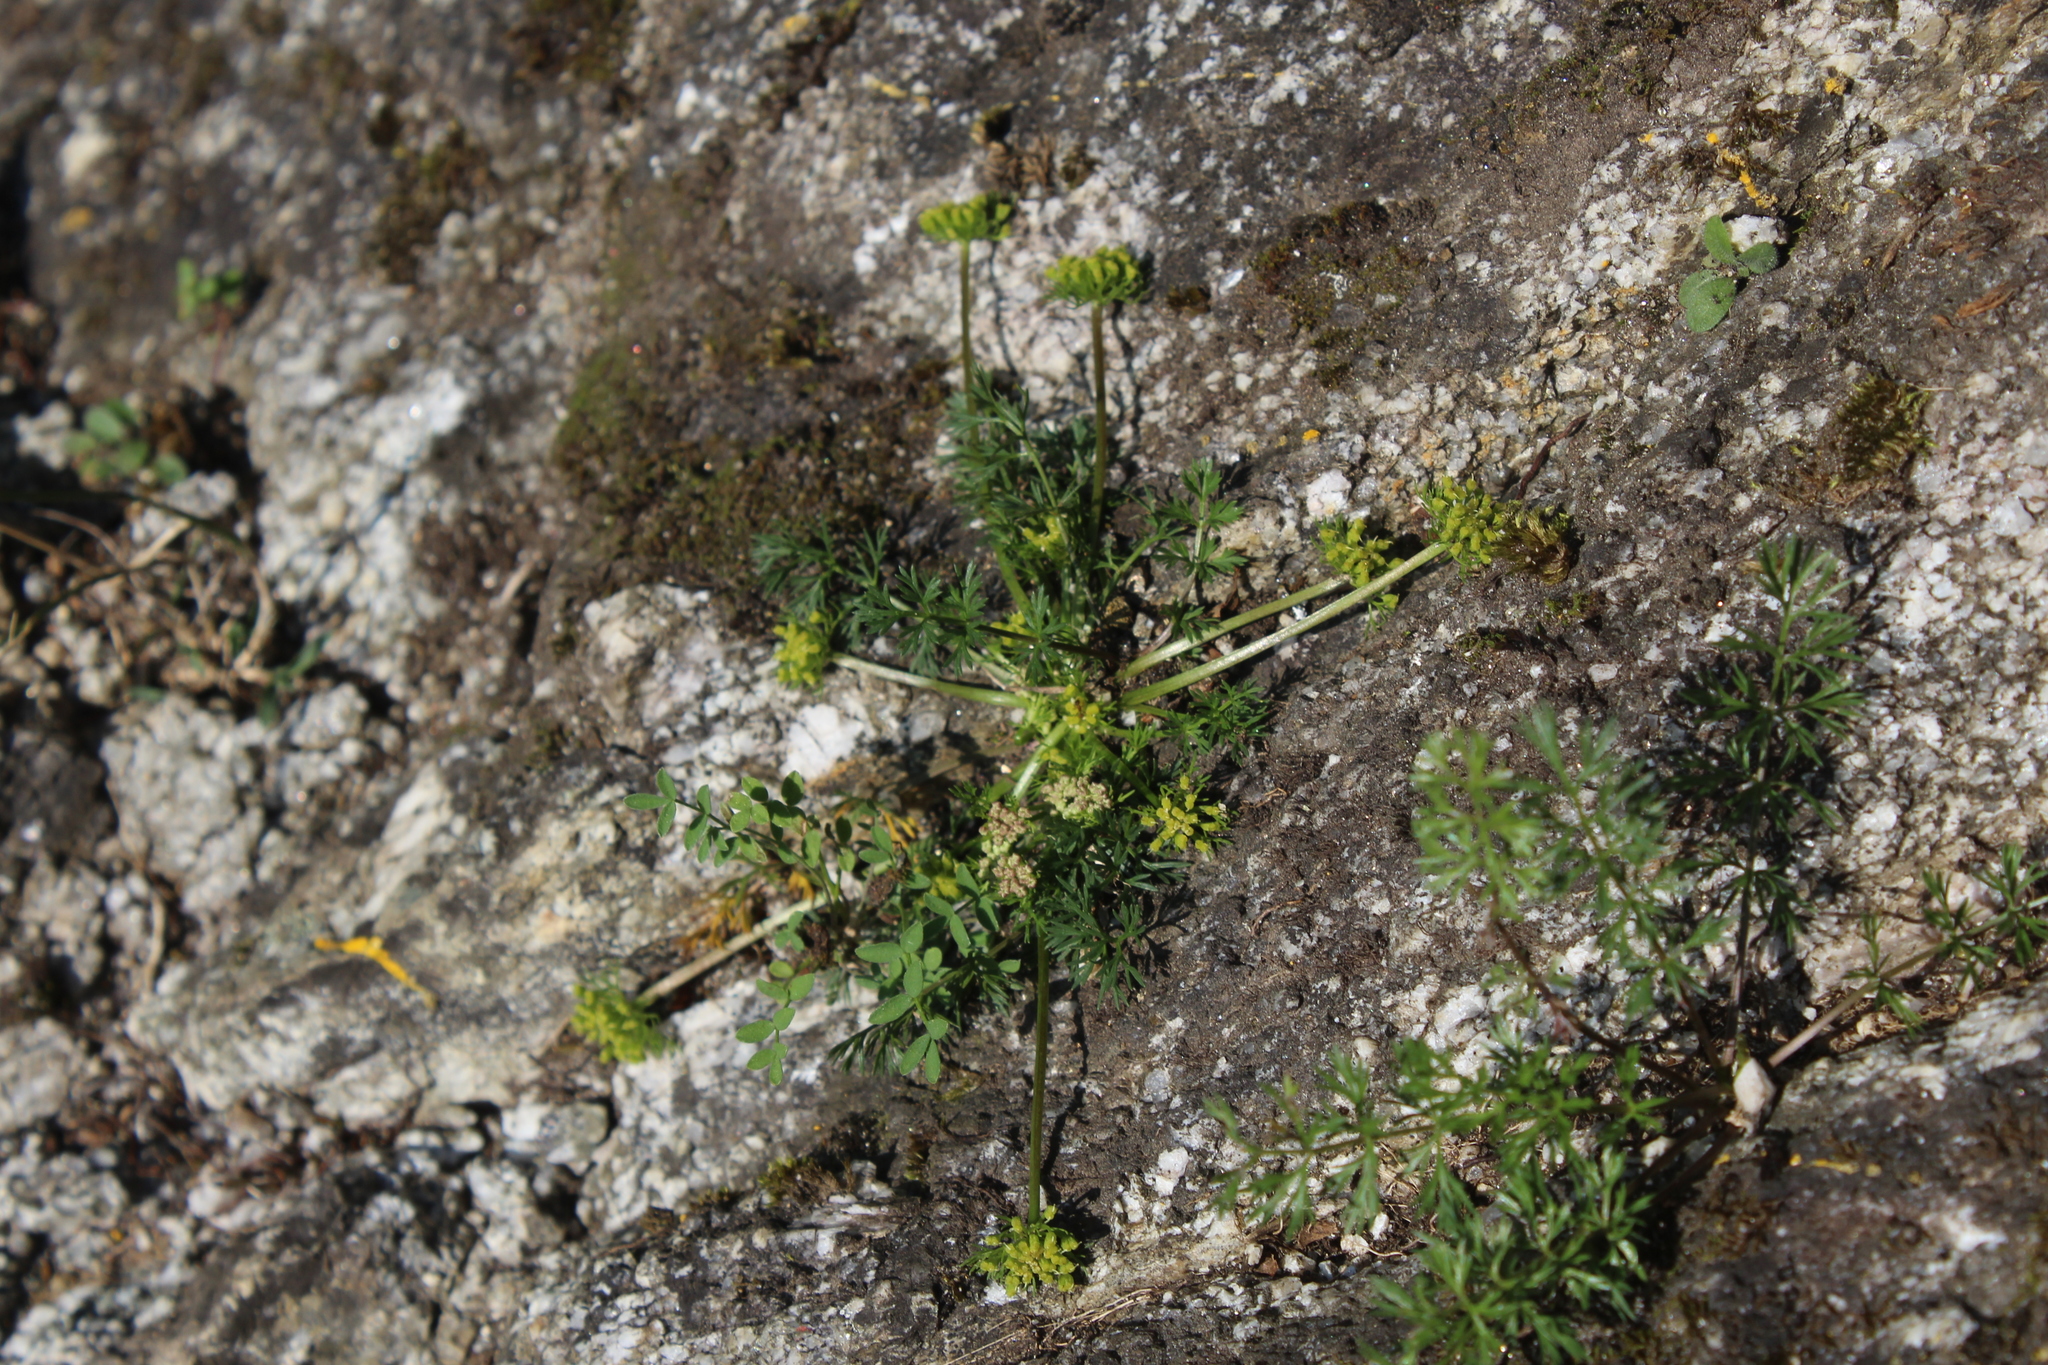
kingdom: Plantae
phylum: Tracheophyta
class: Magnoliopsida
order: Apiales
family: Apiaceae
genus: Chamaesciadium
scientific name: Chamaesciadium acaule
